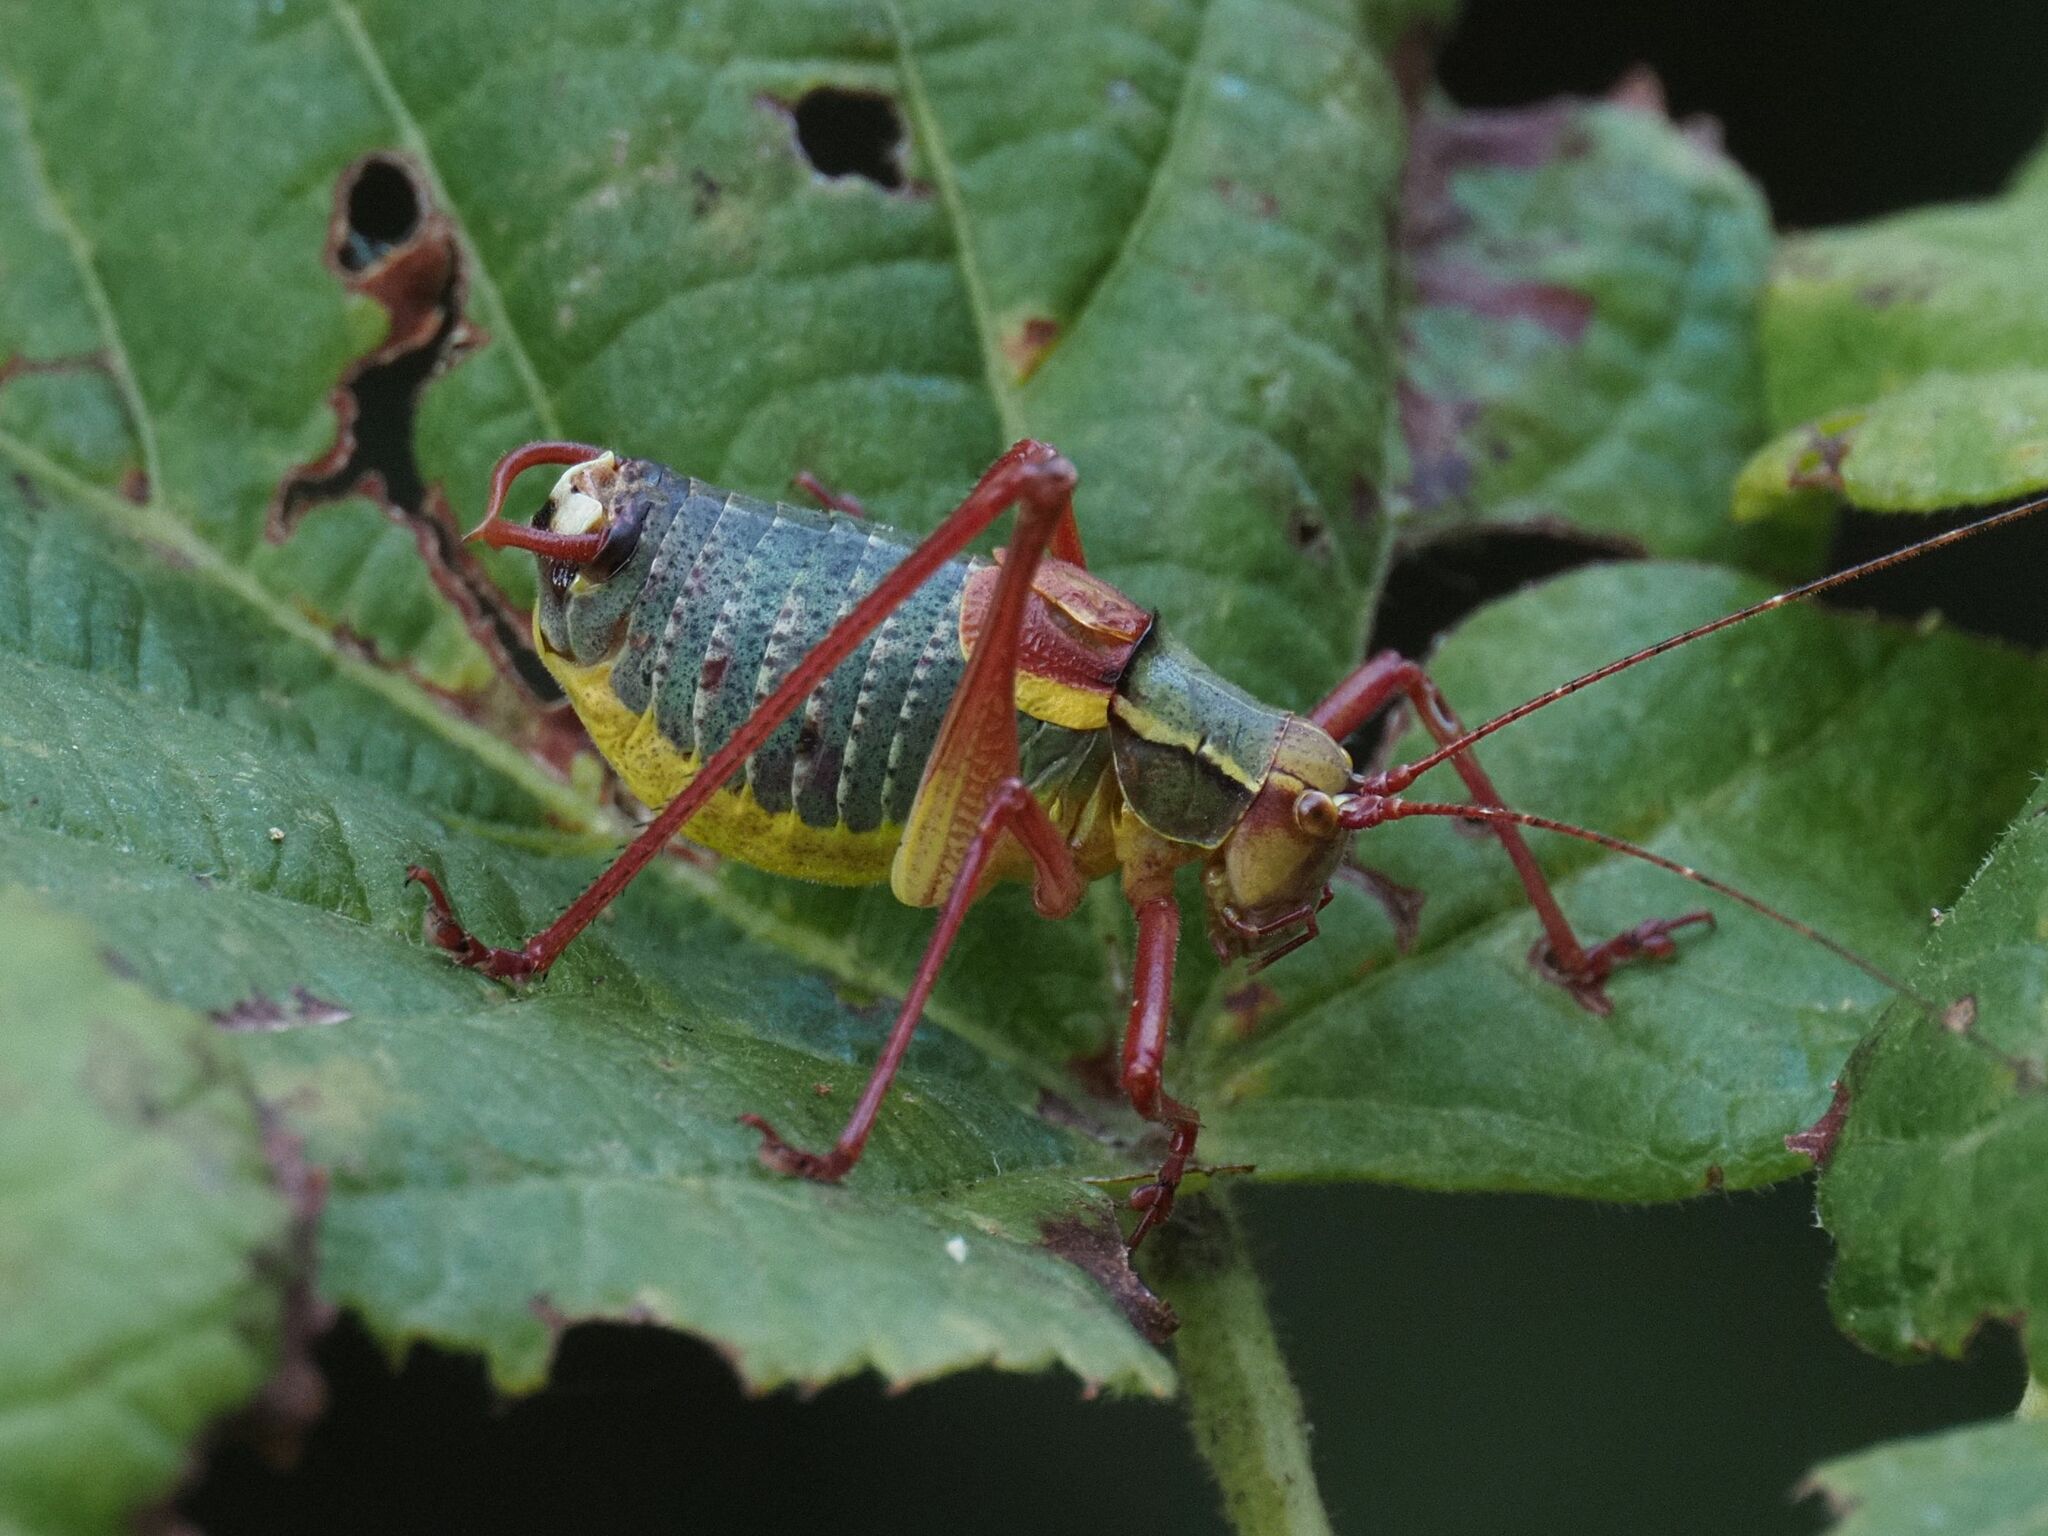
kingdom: Animalia
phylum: Arthropoda
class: Insecta
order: Orthoptera
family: Tettigoniidae
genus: Barbitistes
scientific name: Barbitistes serricauda
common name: Saw-tailed bush-cricket
